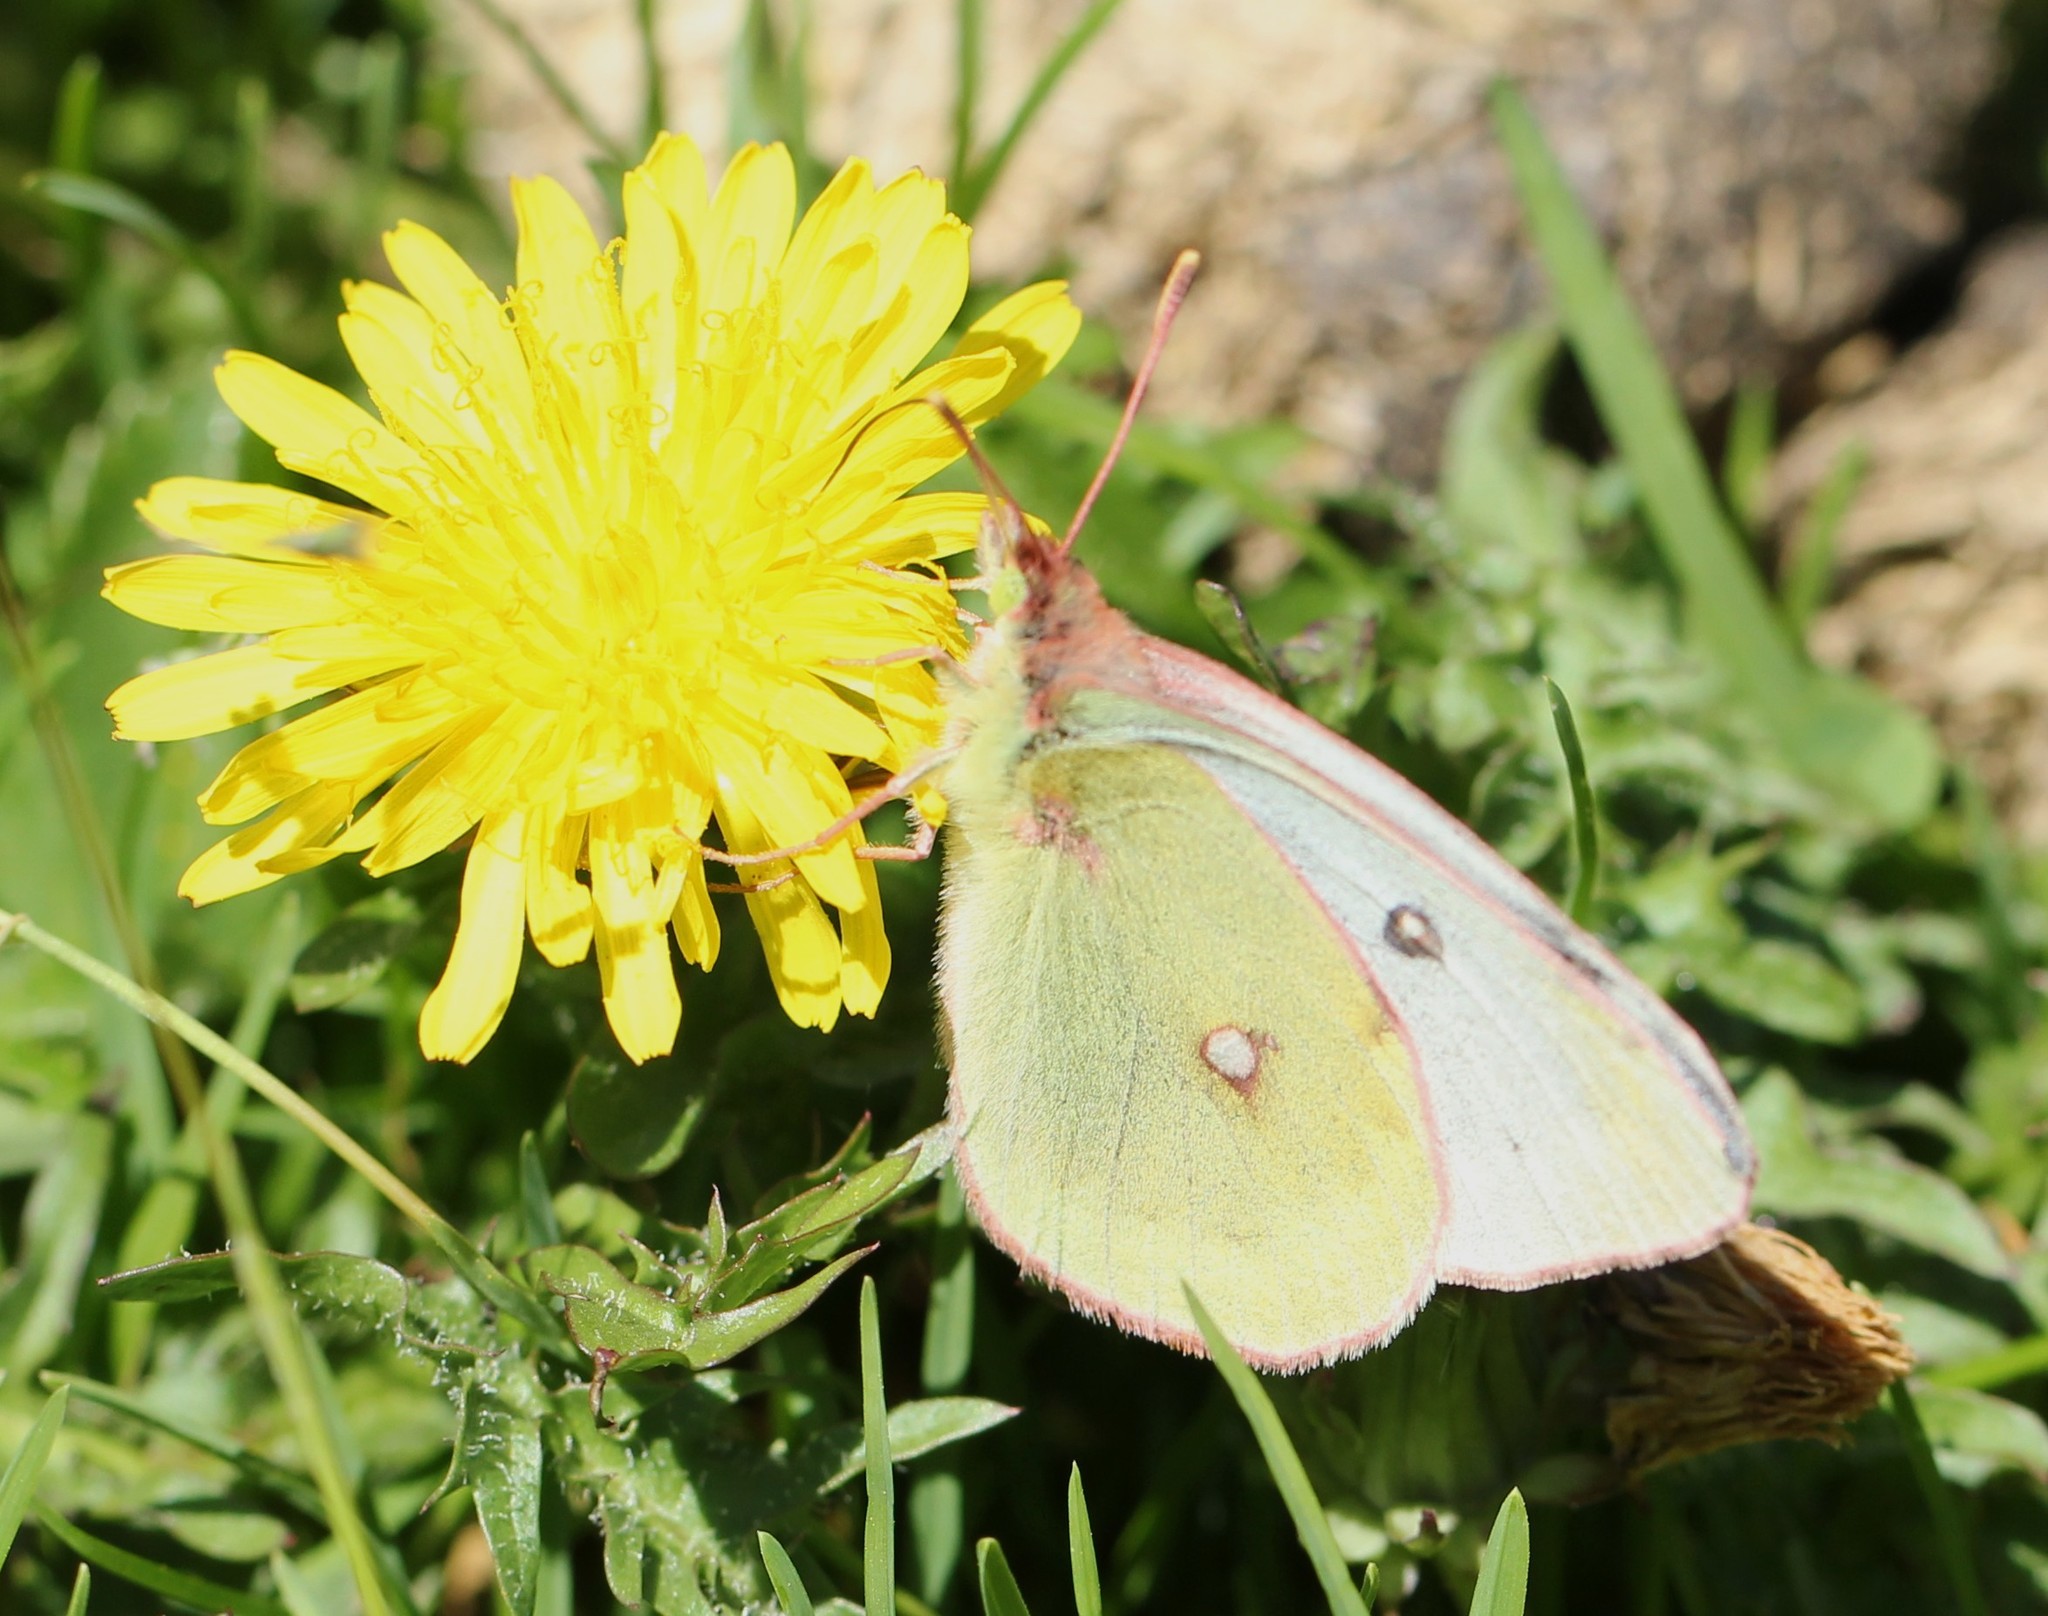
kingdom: Animalia
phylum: Arthropoda
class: Insecta
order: Lepidoptera
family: Pieridae
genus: Colias
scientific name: Colias phicomone
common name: Mountain clouded yellow
